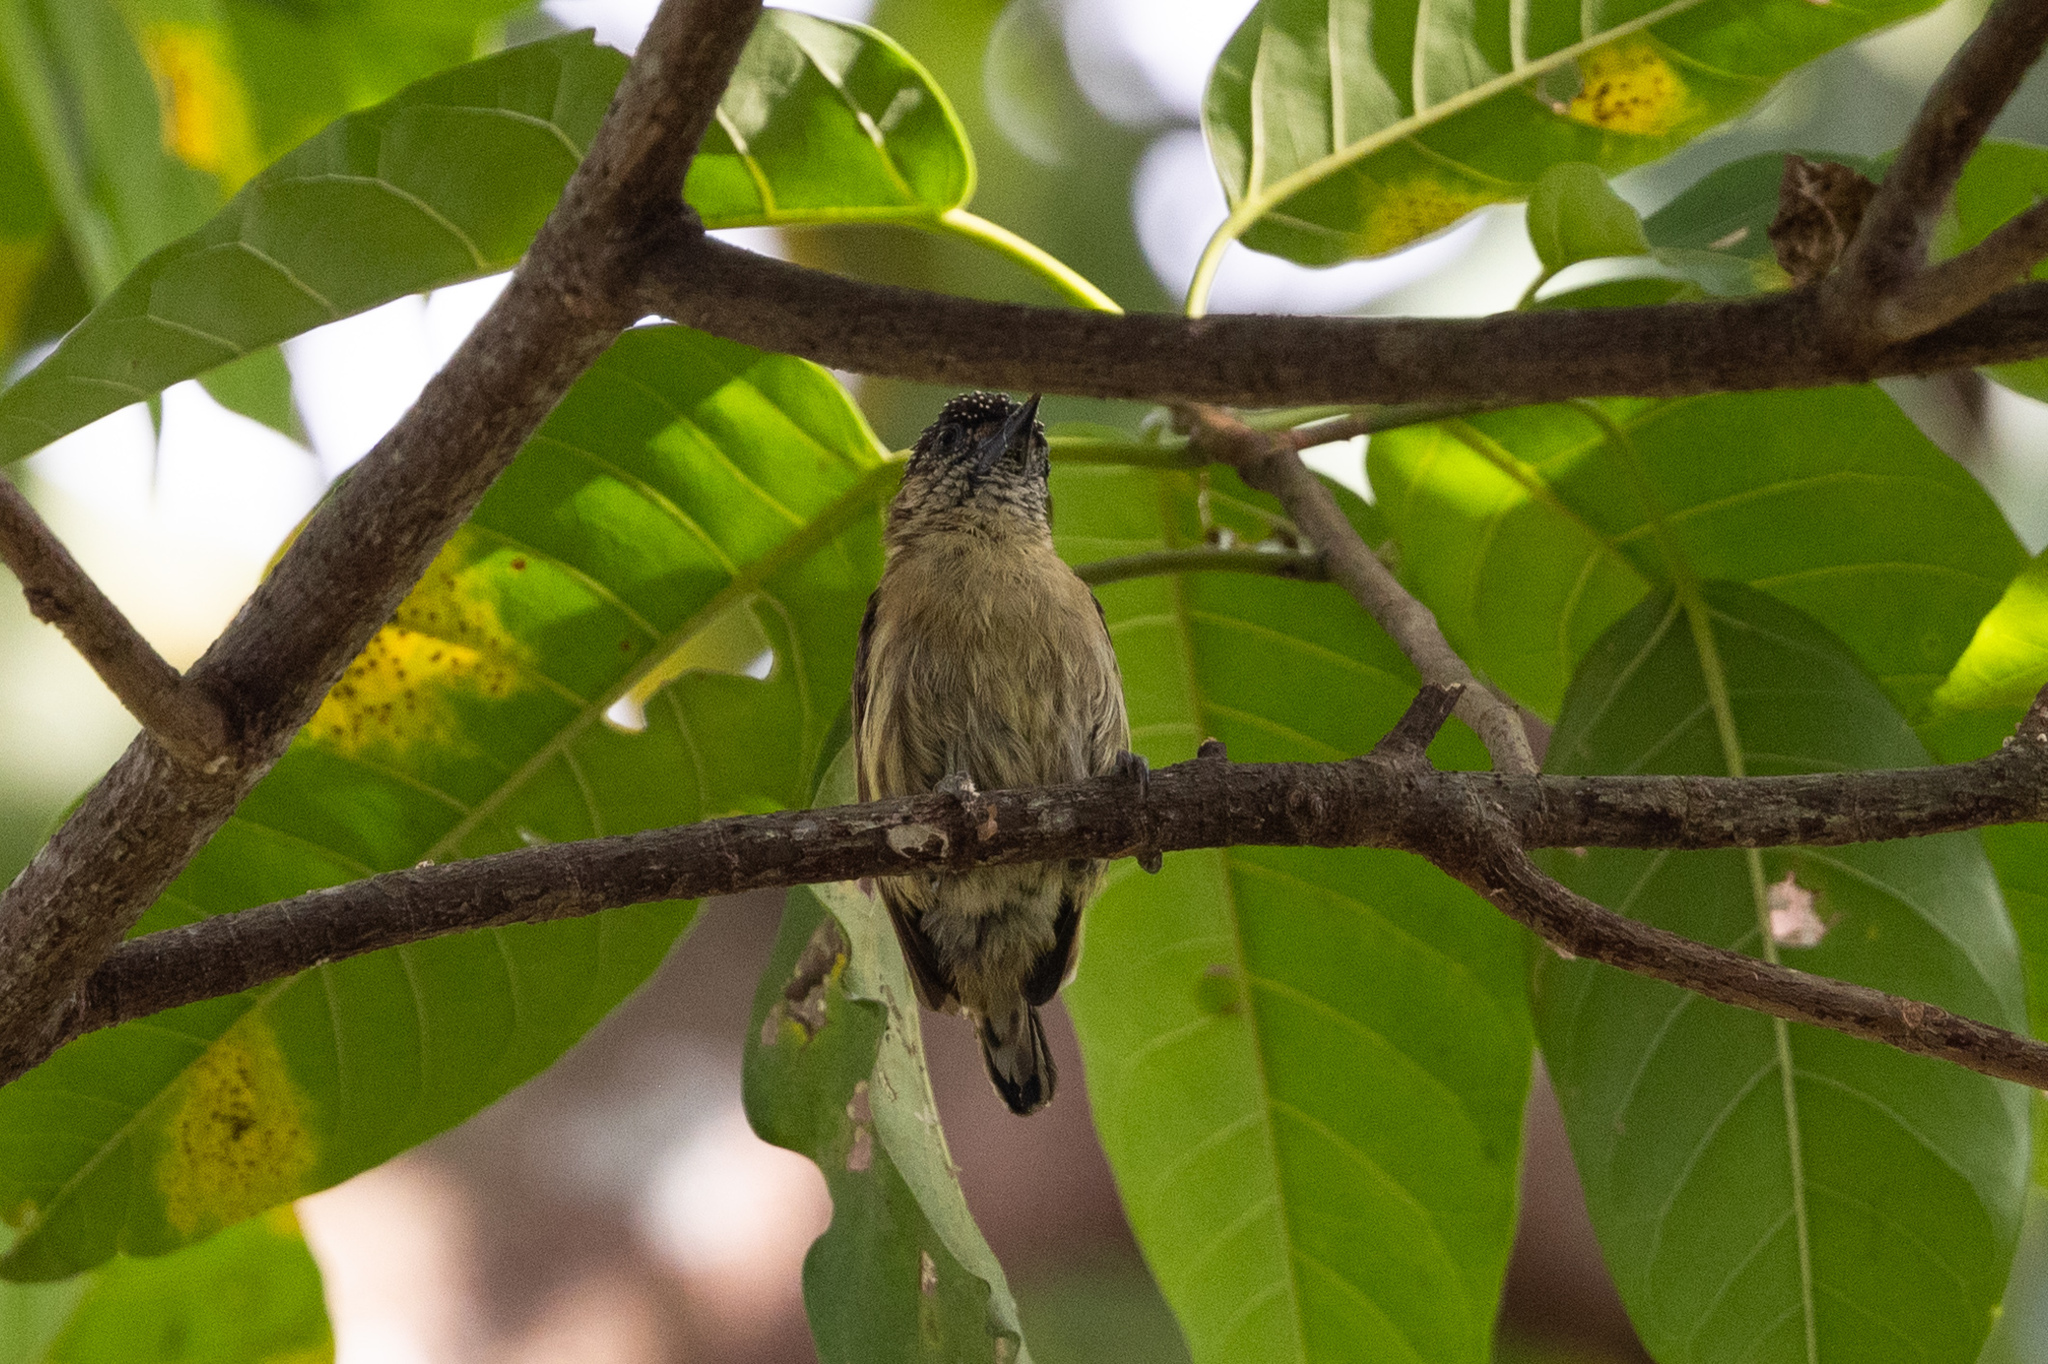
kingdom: Animalia
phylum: Chordata
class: Aves
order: Piciformes
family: Picidae
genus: Picumnus
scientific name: Picumnus olivaceus
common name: Olivaceous piculet
